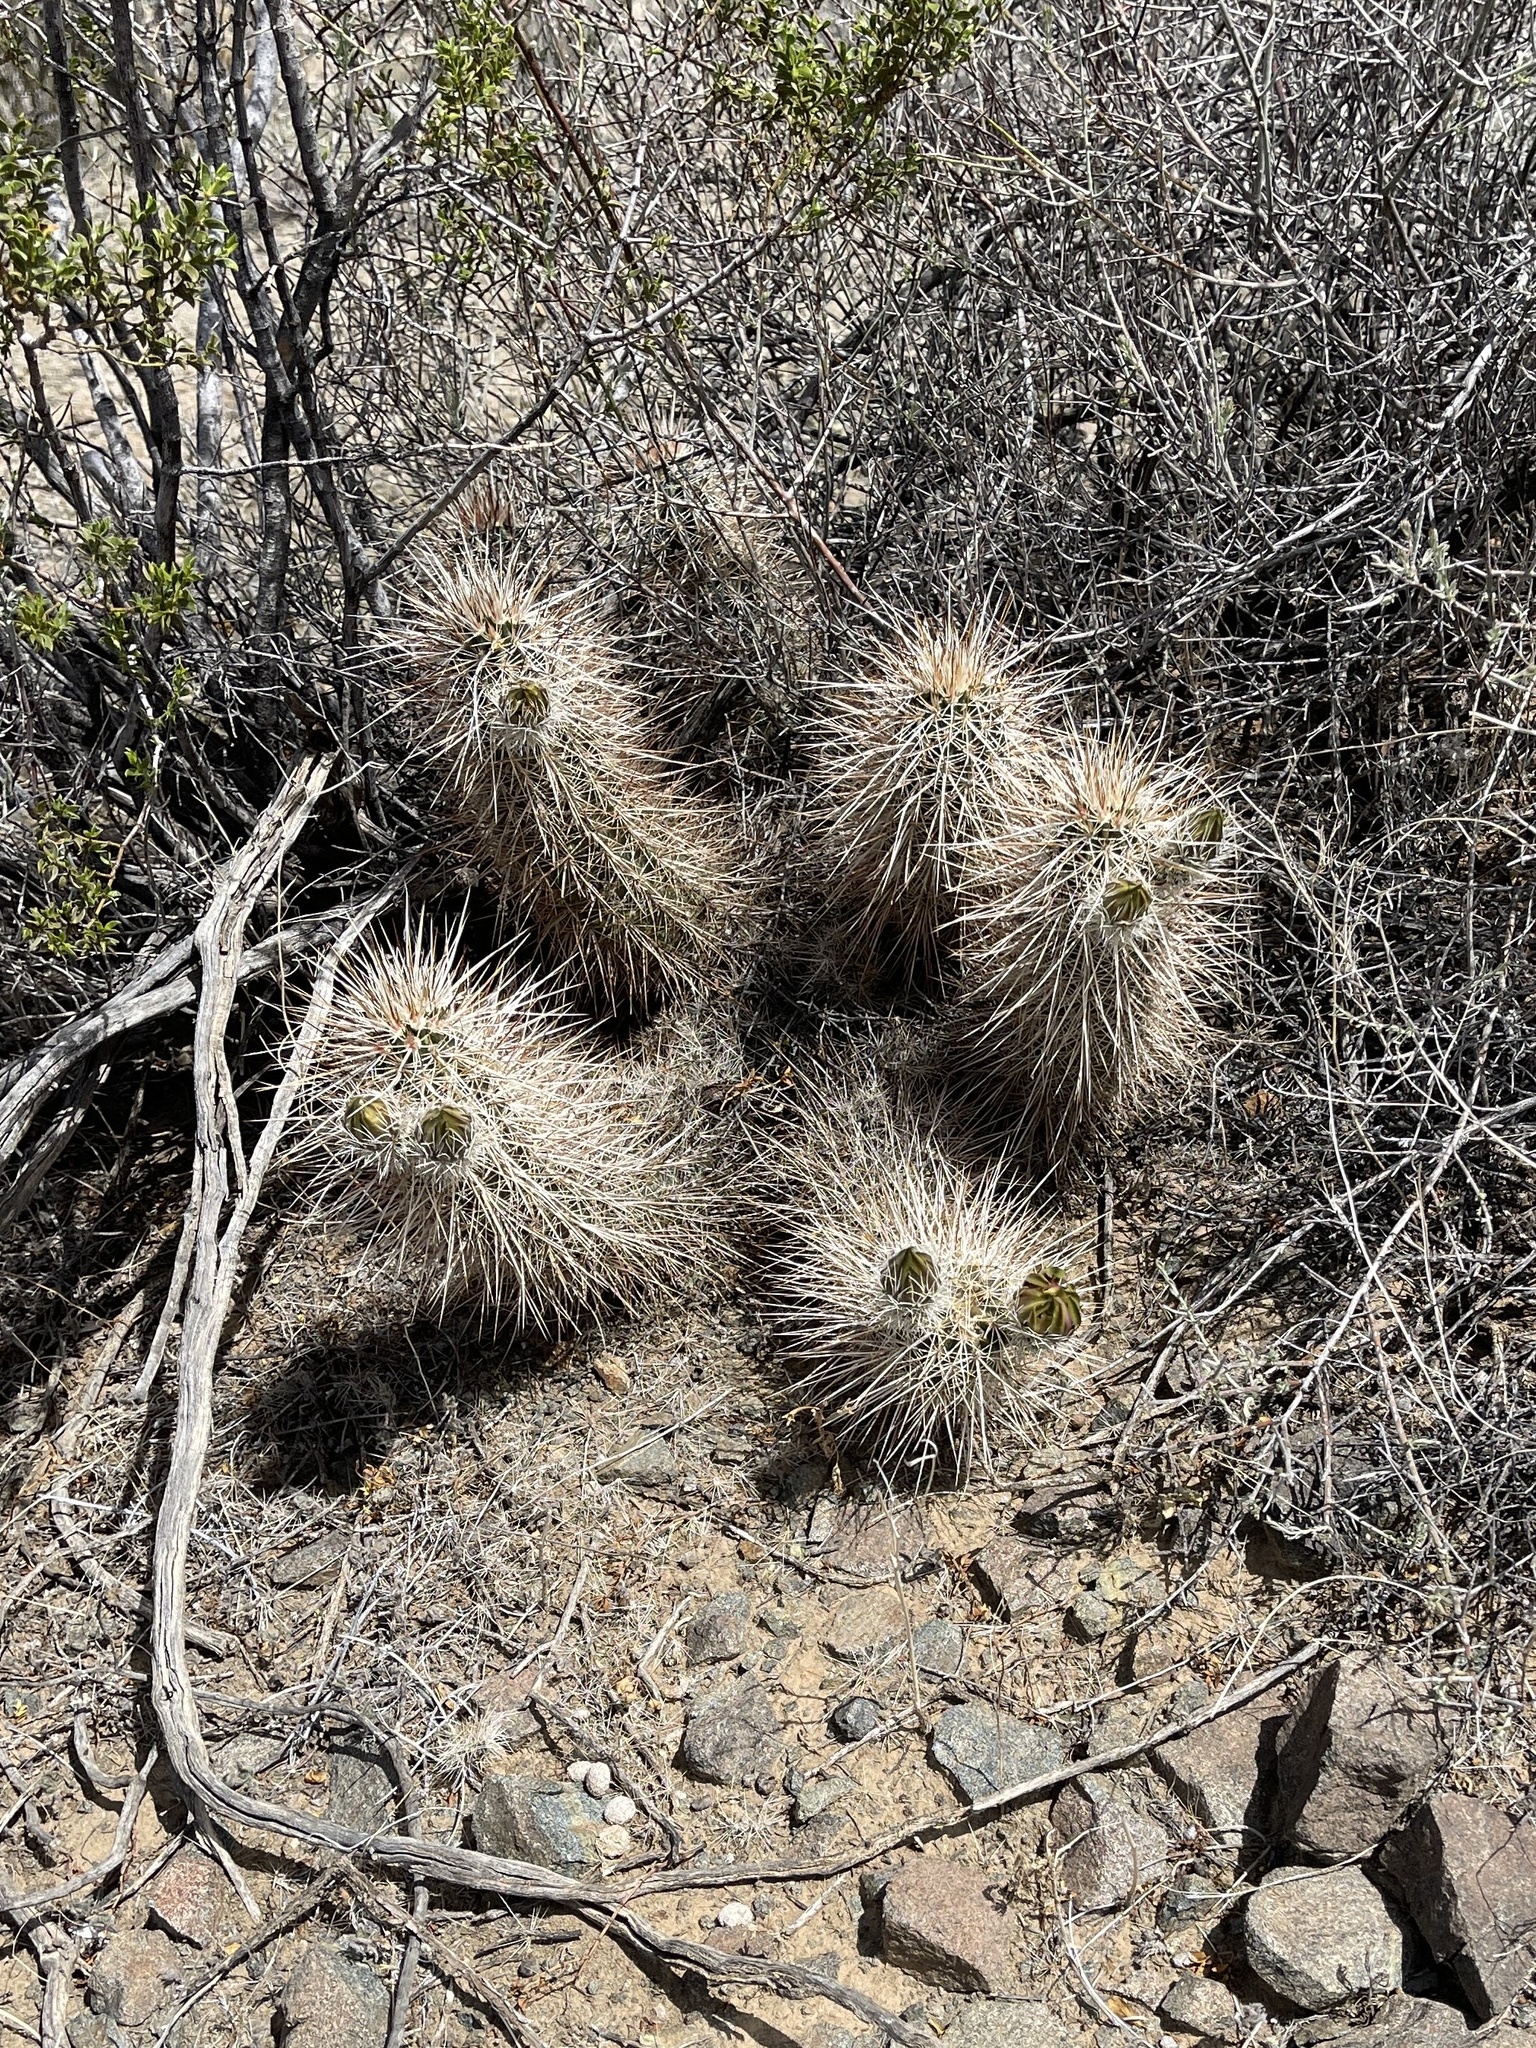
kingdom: Plantae
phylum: Tracheophyta
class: Magnoliopsida
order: Caryophyllales
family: Cactaceae
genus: Echinocereus
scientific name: Echinocereus engelmannii
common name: Engelmann's hedgehog cactus
